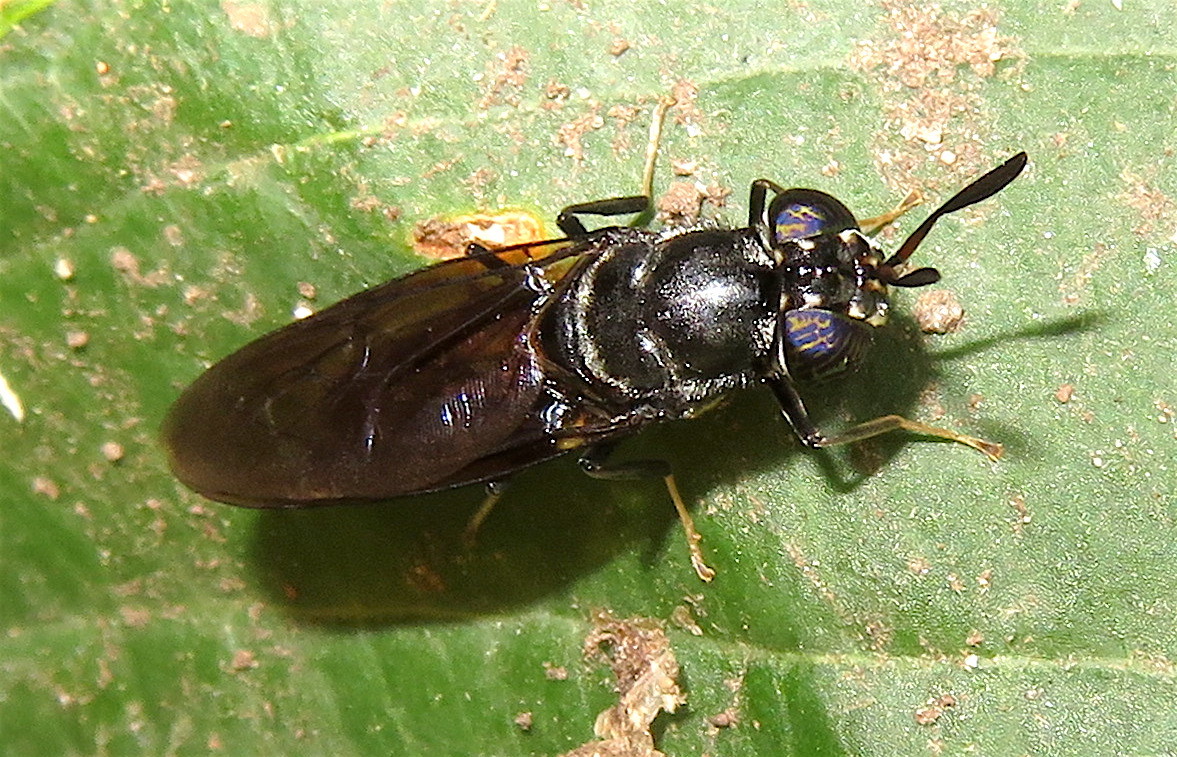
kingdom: Animalia
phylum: Arthropoda
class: Insecta
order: Diptera
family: Stratiomyidae
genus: Hermetia
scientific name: Hermetia illucens
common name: Black soldier fly
